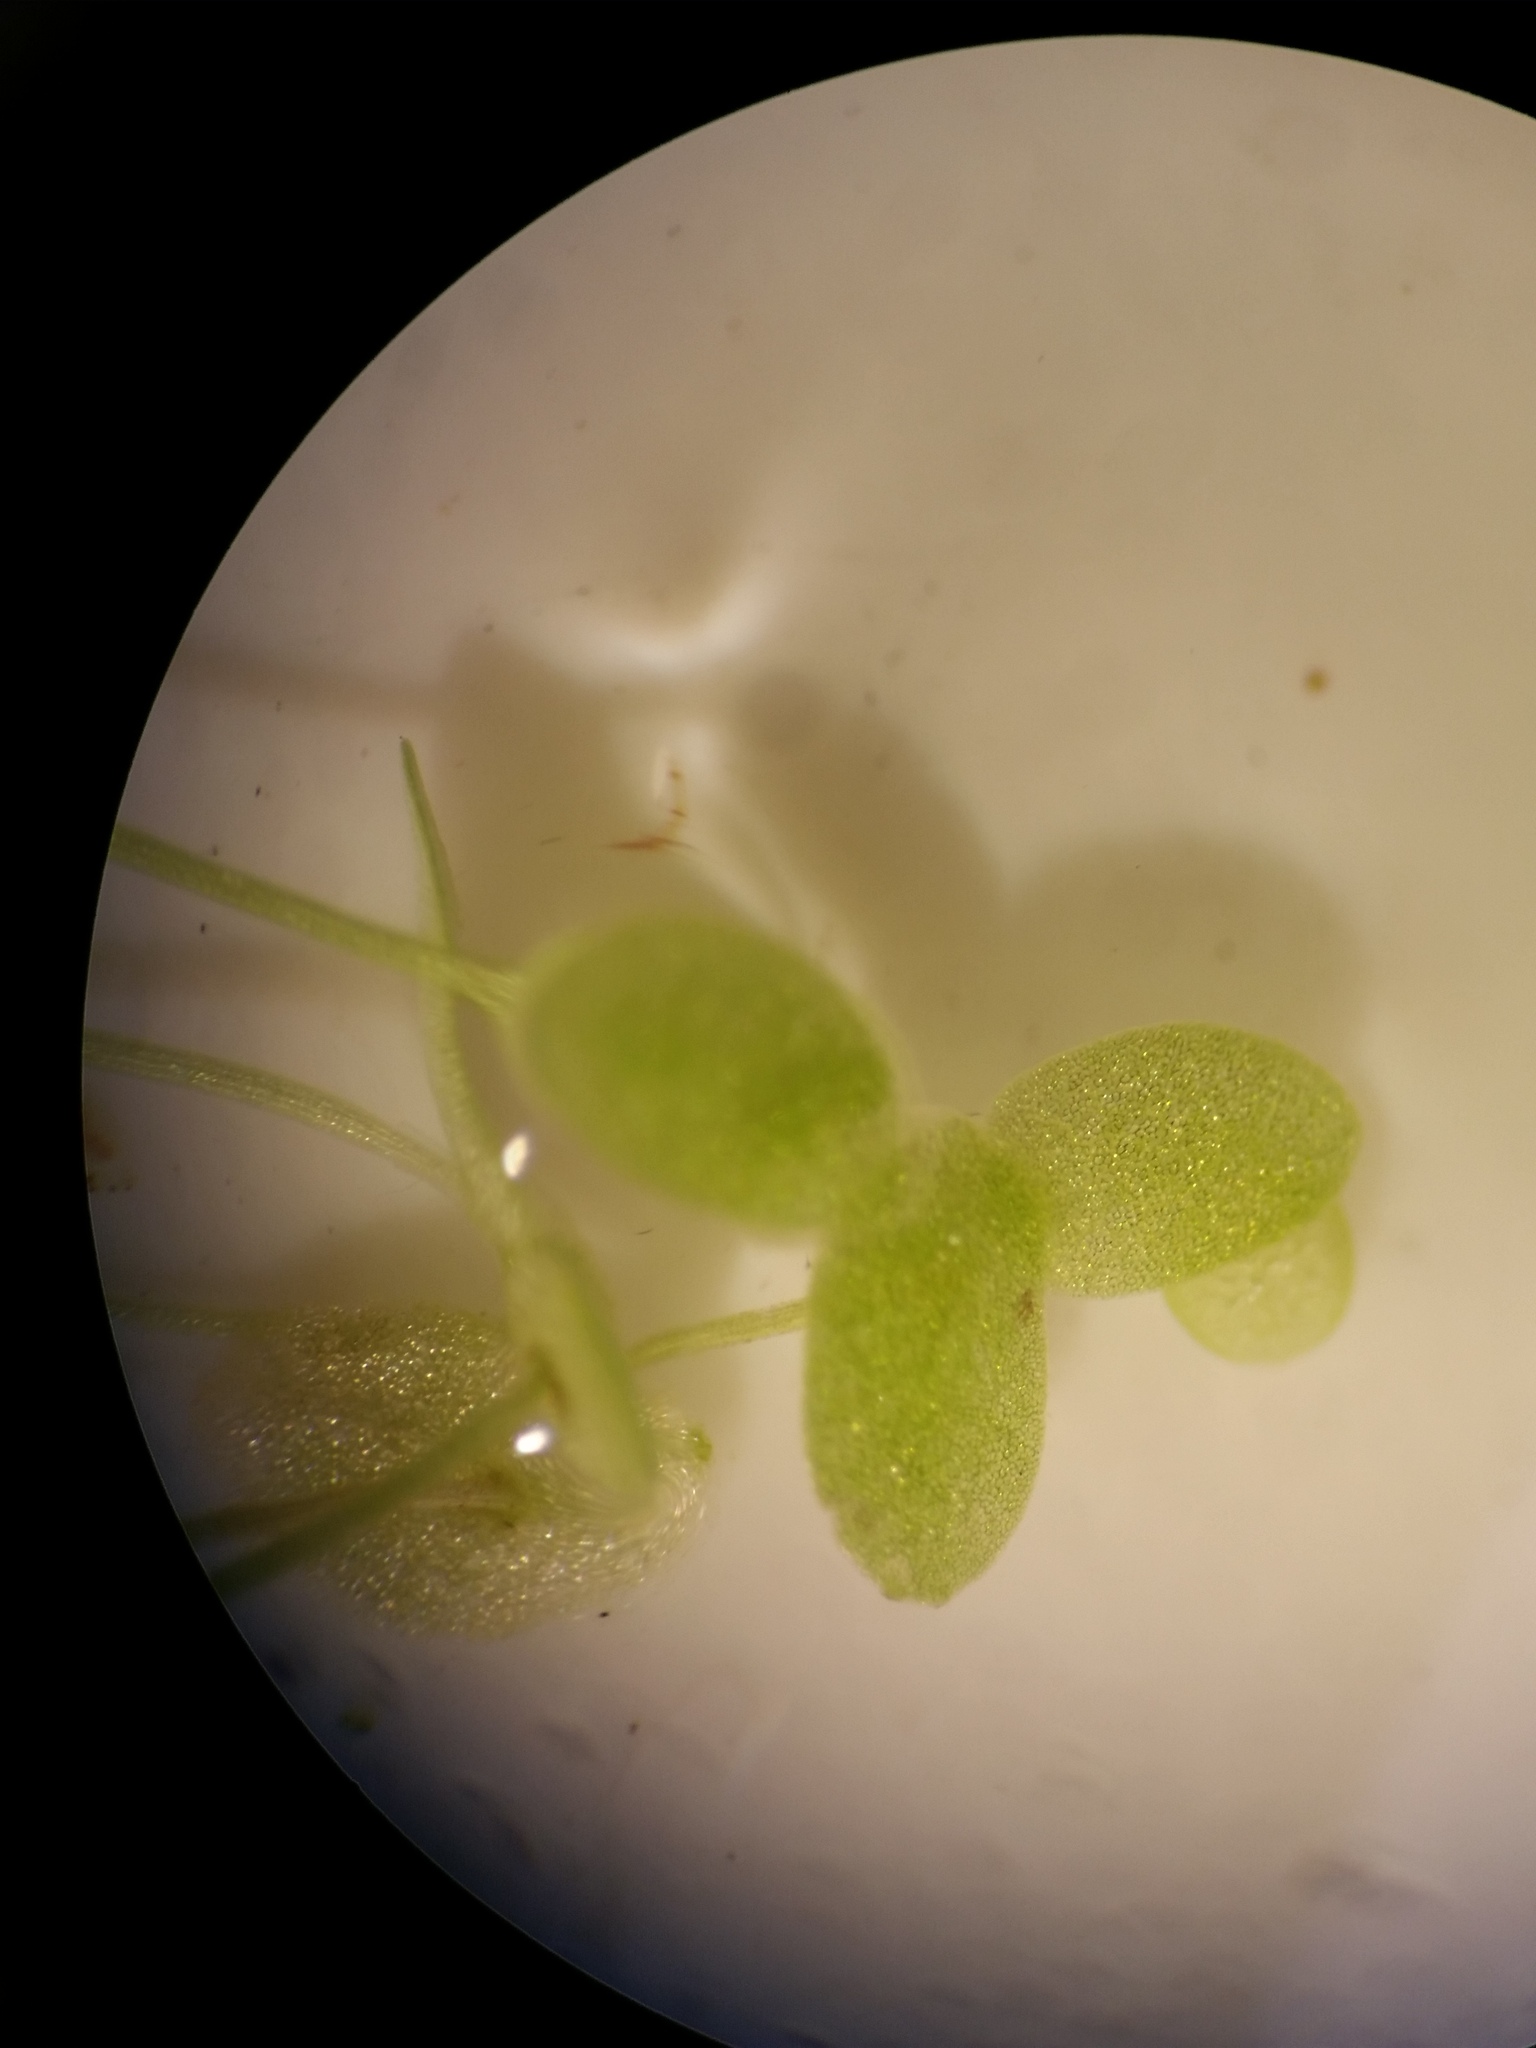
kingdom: Plantae
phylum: Tracheophyta
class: Liliopsida
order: Alismatales
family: Araceae
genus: Lemna
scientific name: Lemna valdiviana
